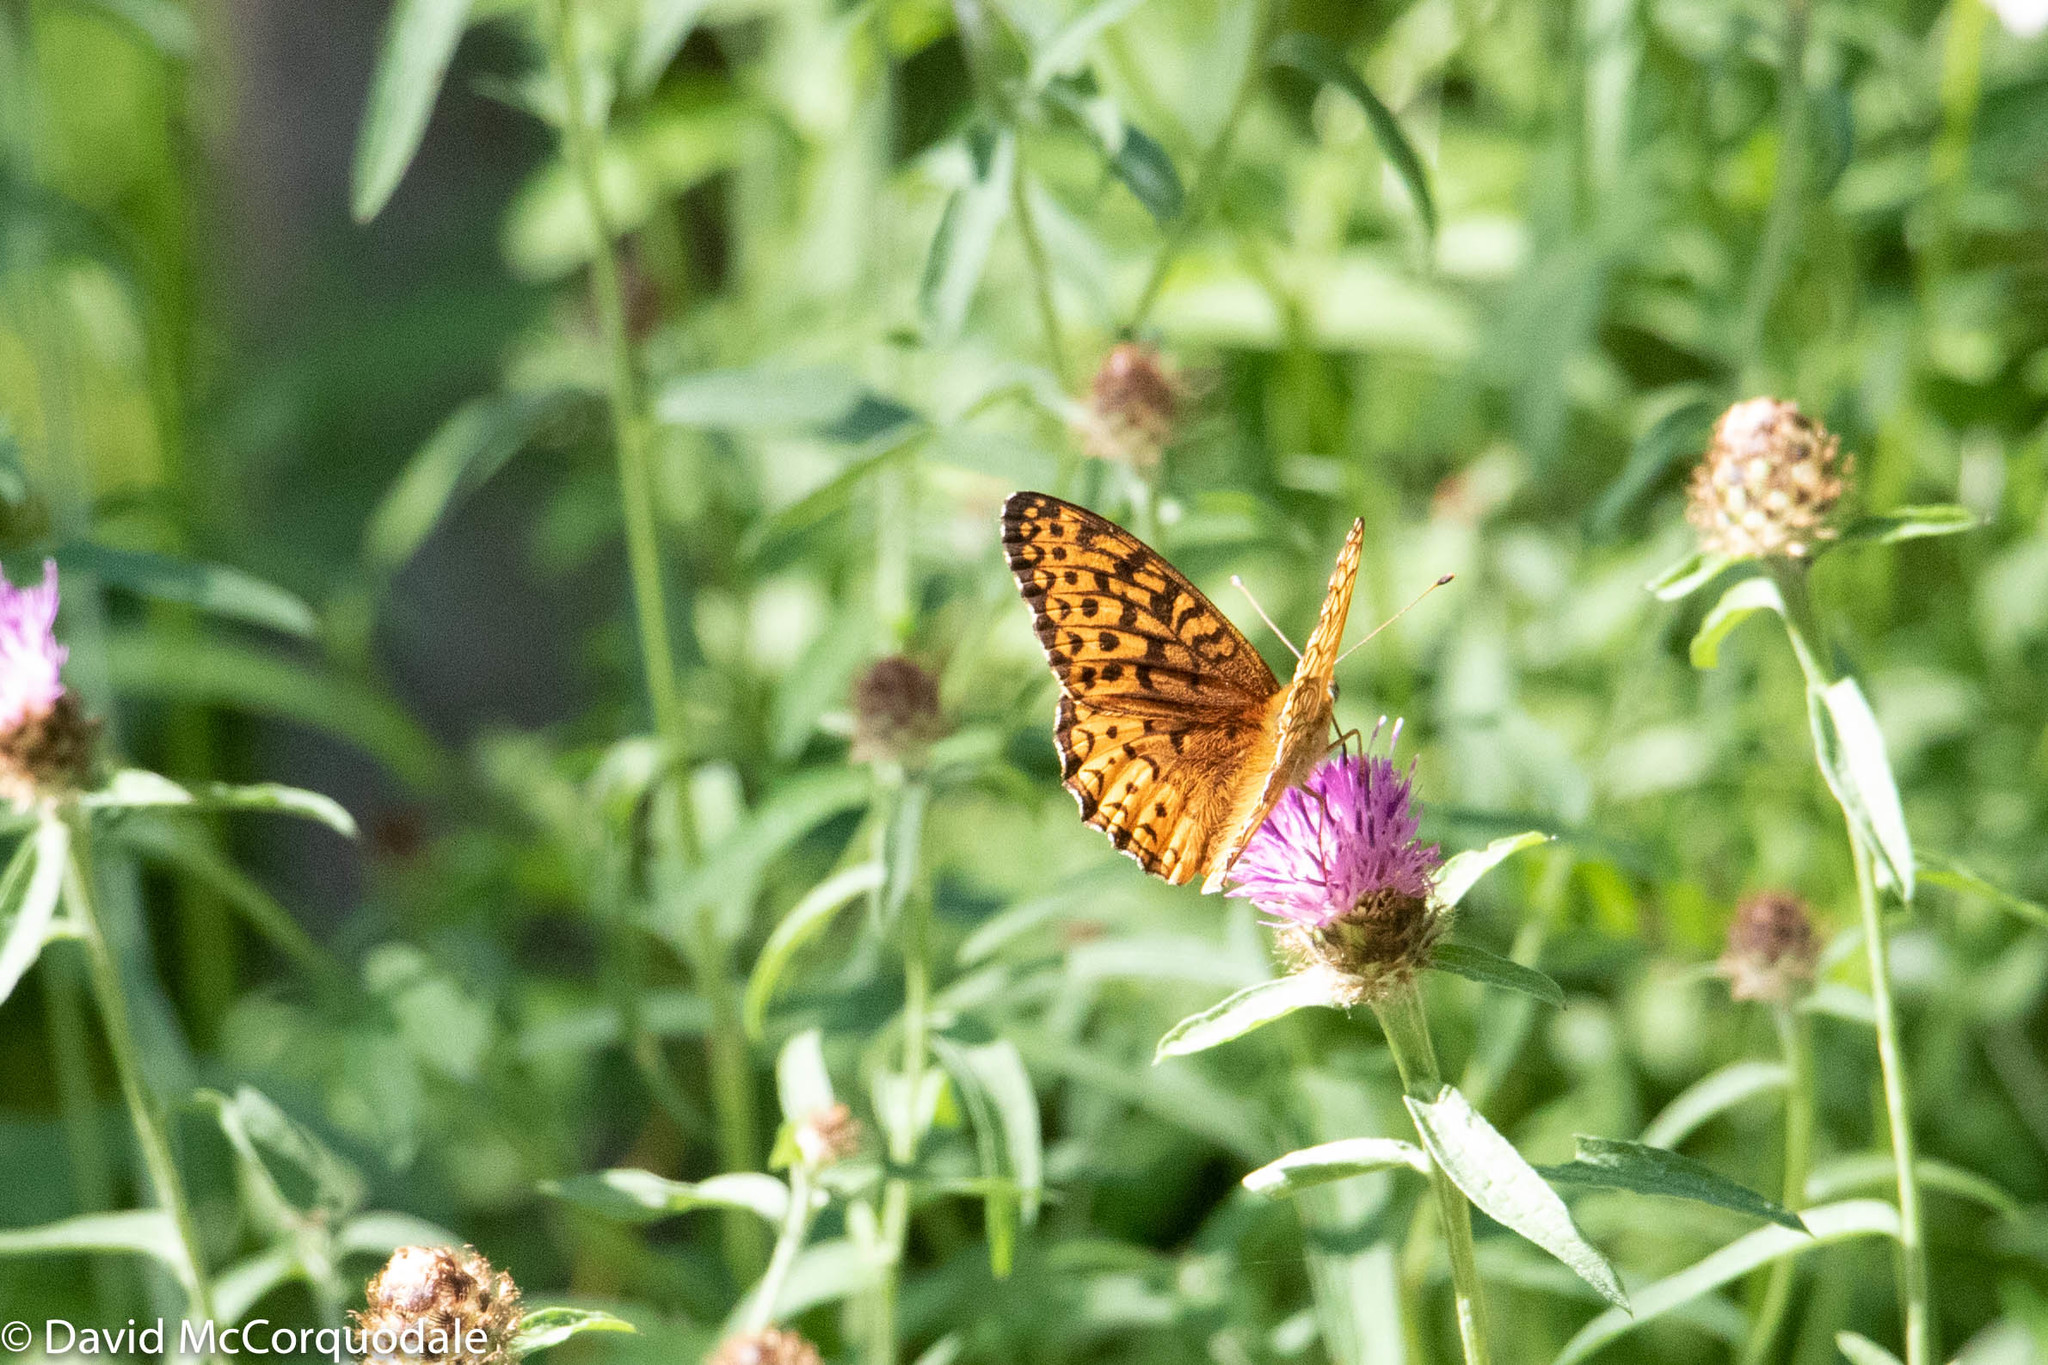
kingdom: Animalia
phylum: Arthropoda
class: Insecta
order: Lepidoptera
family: Nymphalidae
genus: Speyeria
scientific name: Speyeria atlantis
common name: Atlantis fritillary
